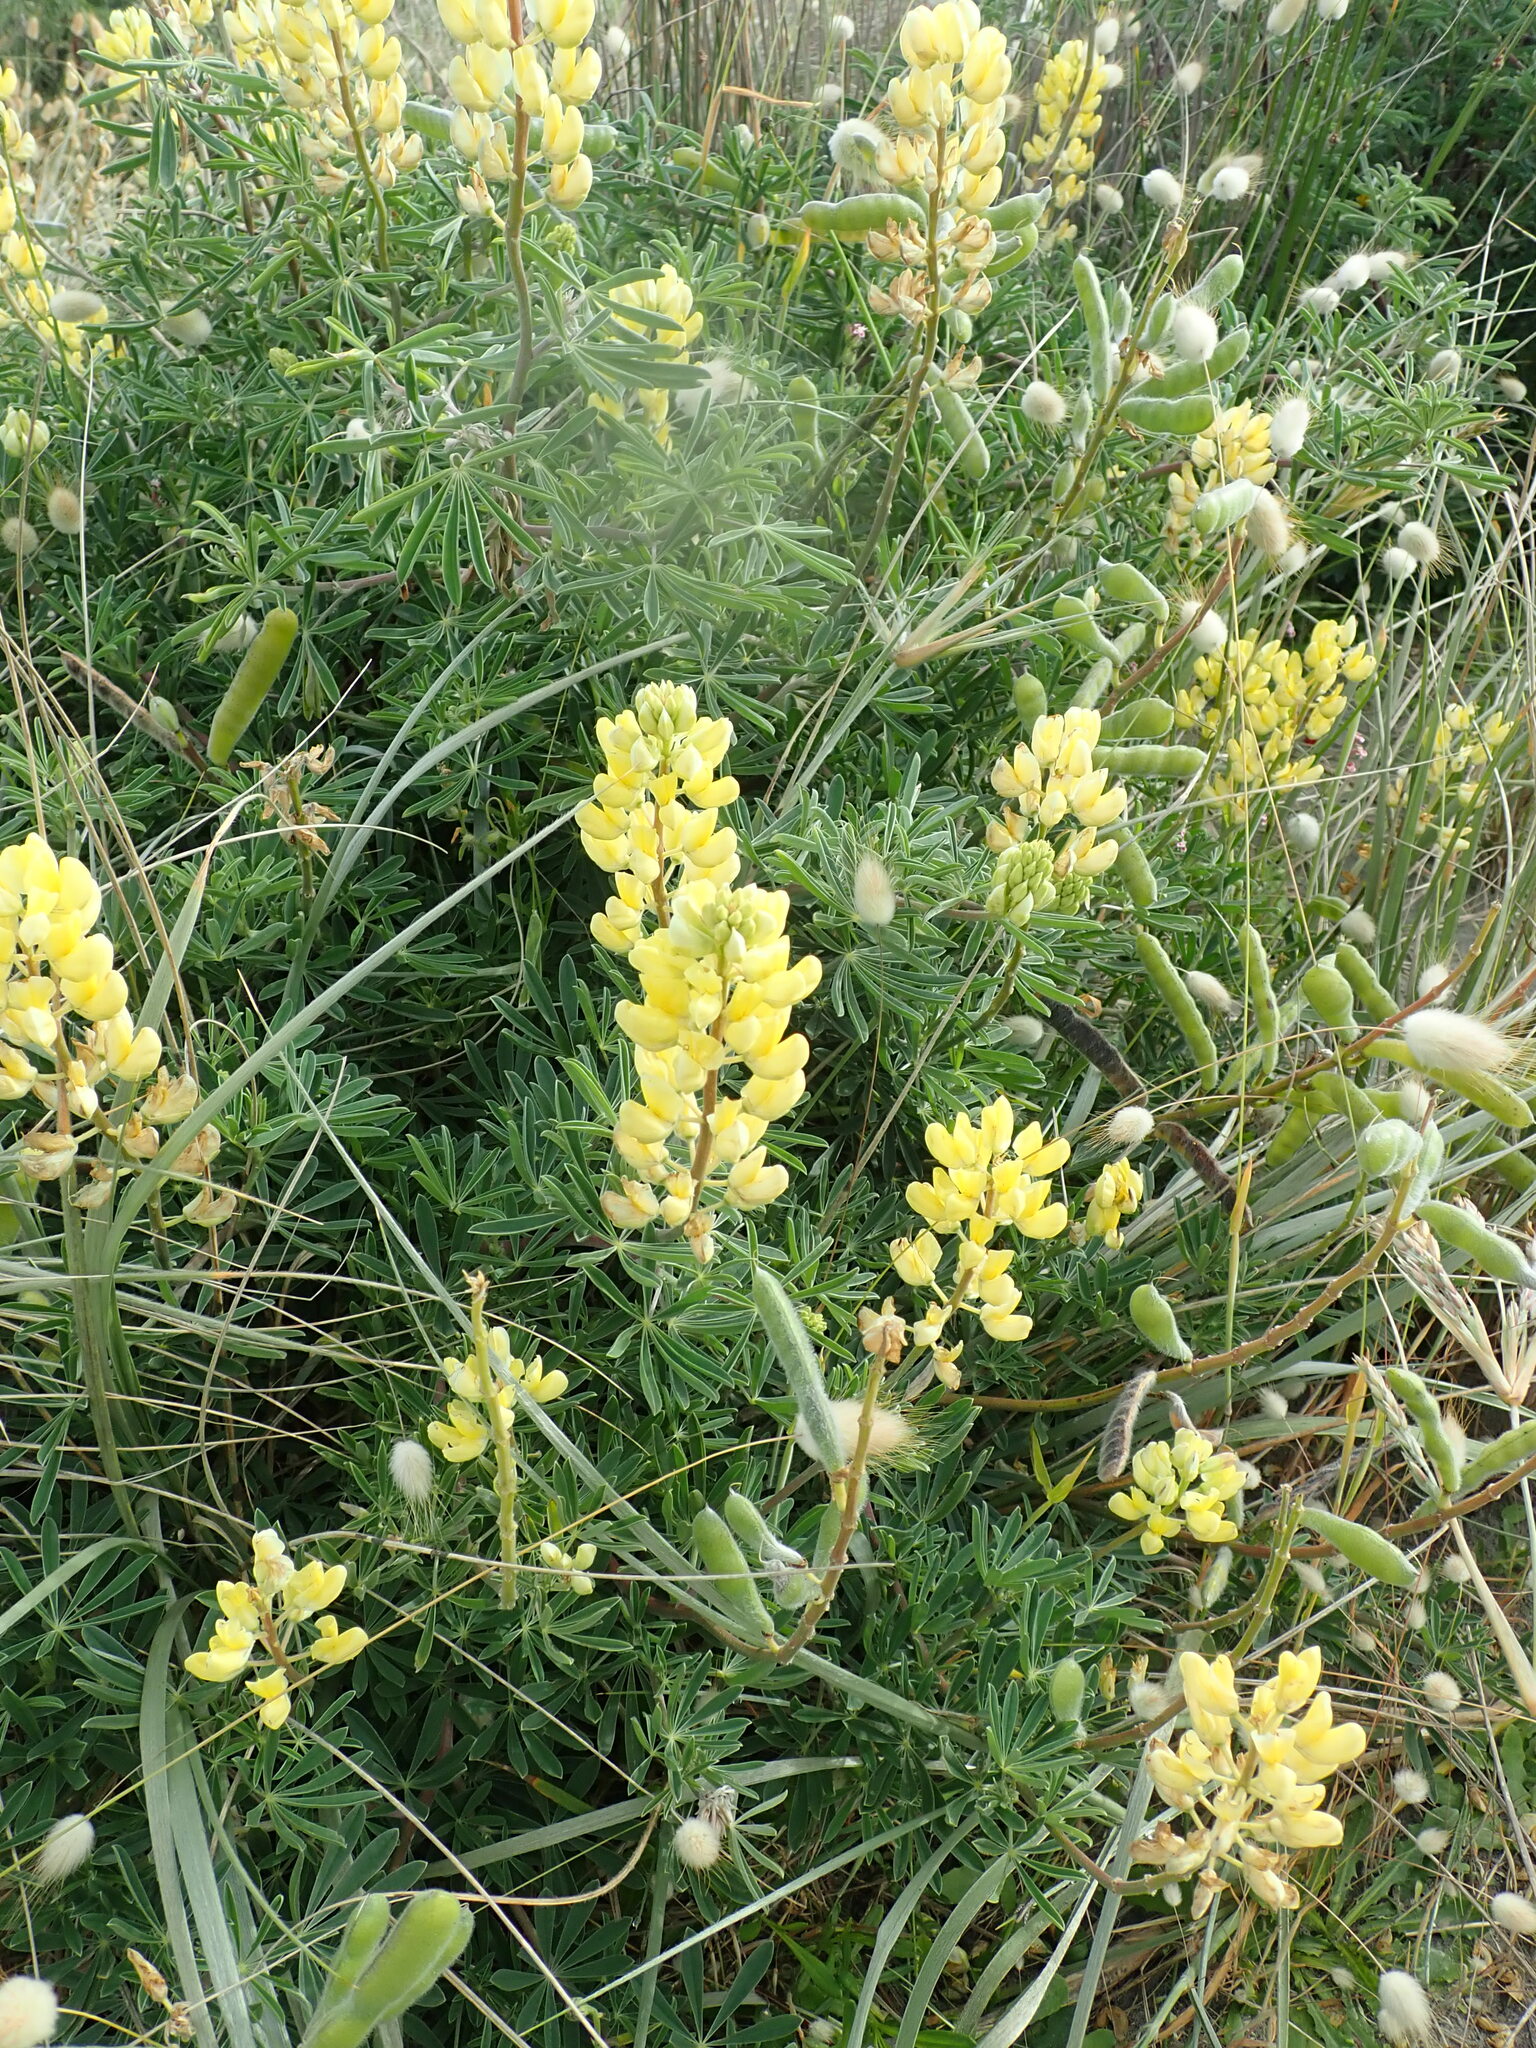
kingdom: Plantae
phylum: Tracheophyta
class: Magnoliopsida
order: Fabales
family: Fabaceae
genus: Lupinus
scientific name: Lupinus arboreus
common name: Yellow bush lupine
